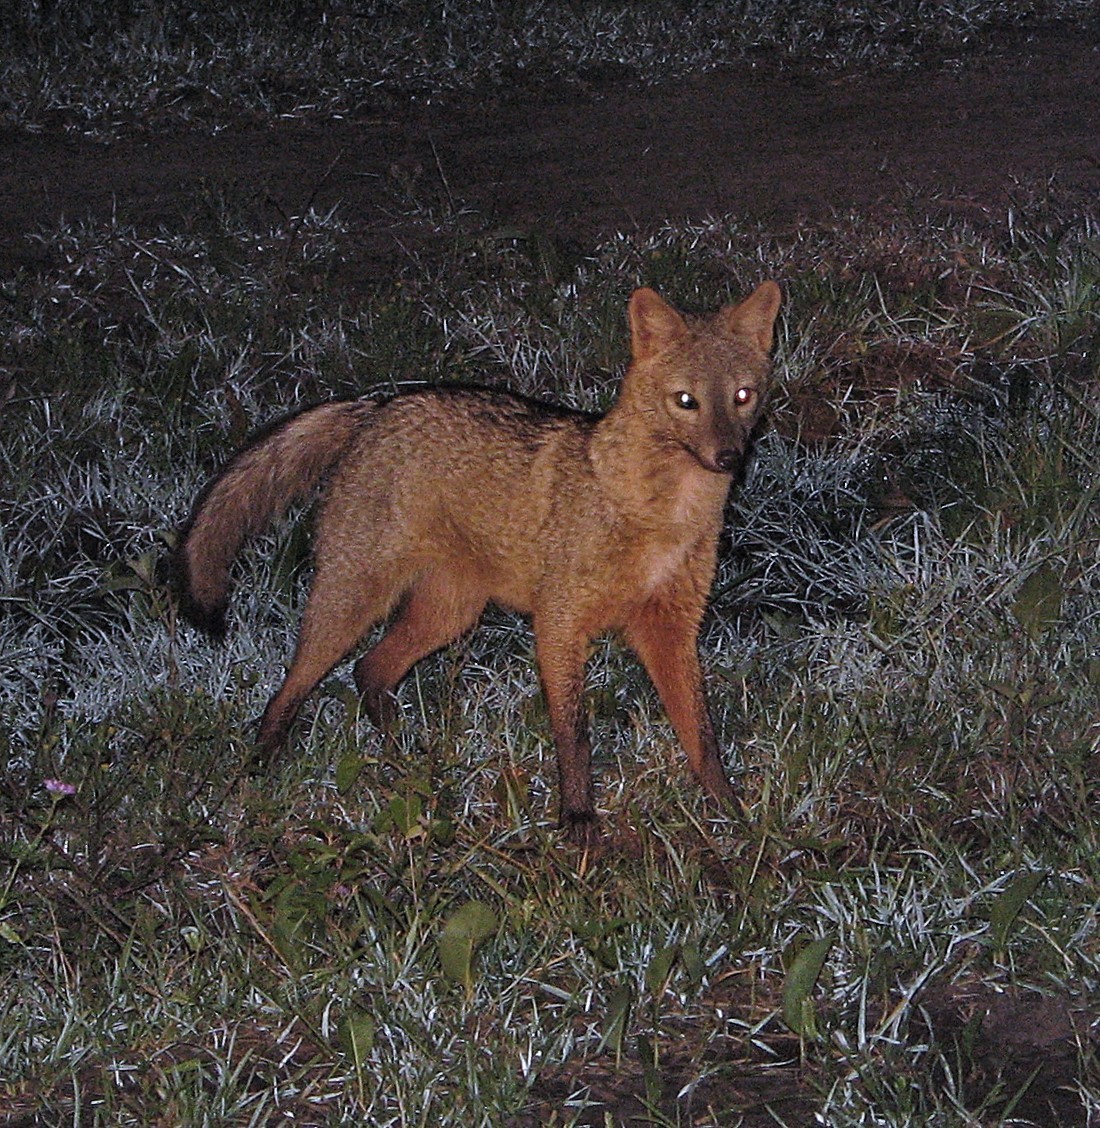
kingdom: Animalia
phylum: Chordata
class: Mammalia
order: Carnivora
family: Canidae
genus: Cerdocyon
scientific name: Cerdocyon thous
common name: Crab-eating fox
